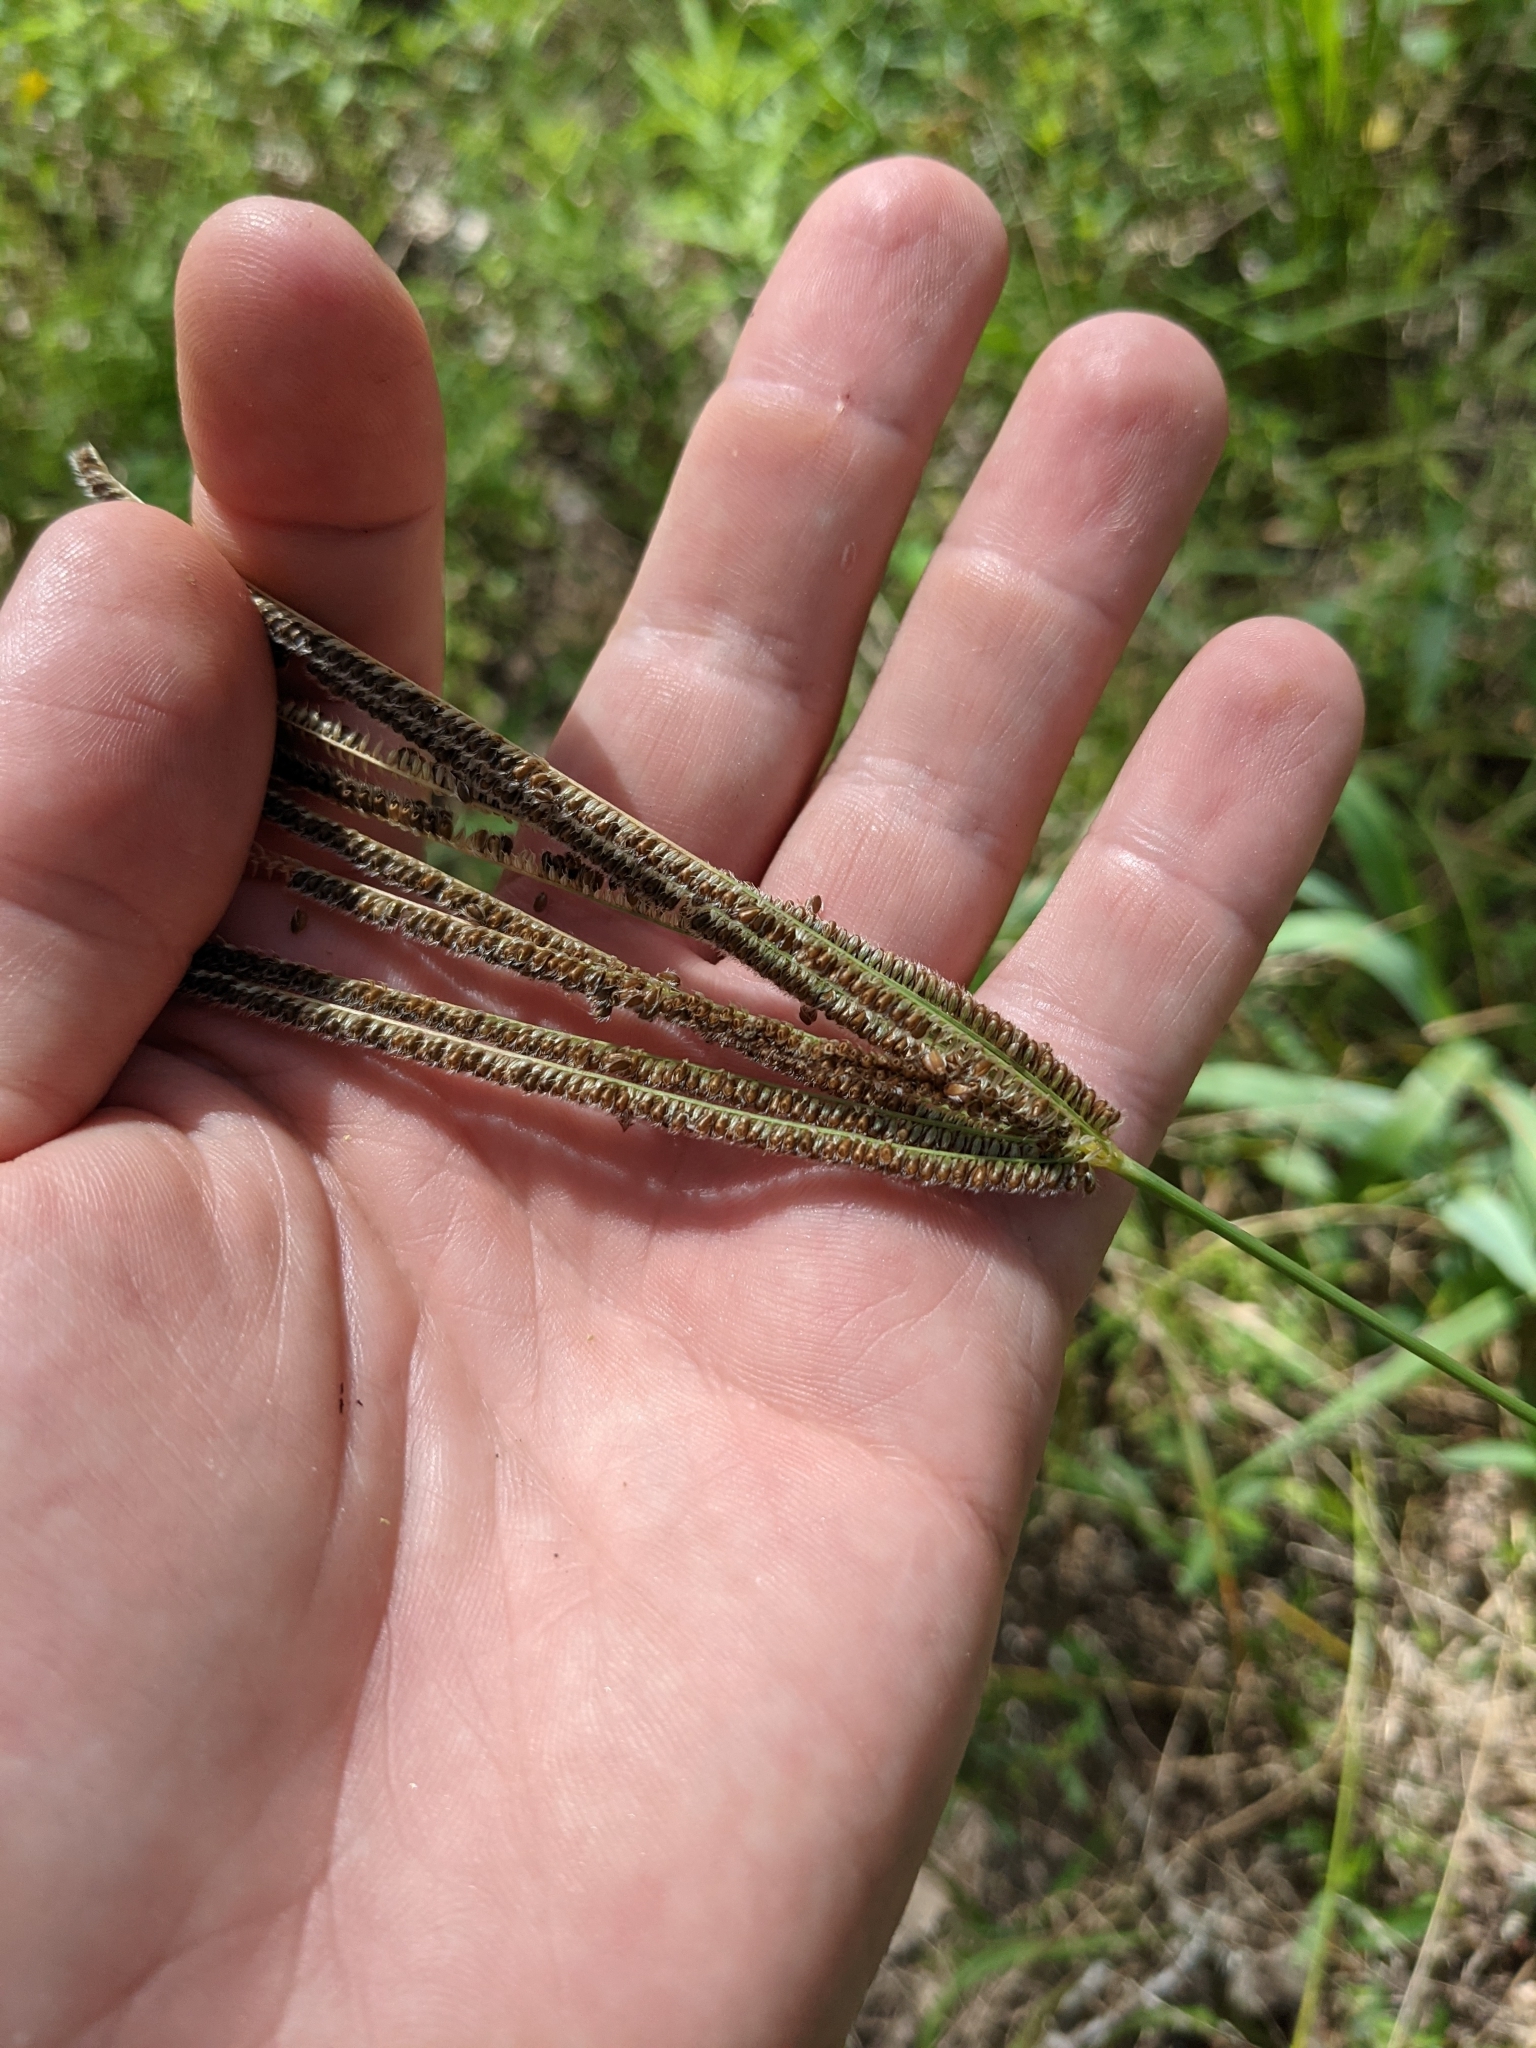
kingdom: Plantae
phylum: Tracheophyta
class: Liliopsida
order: Poales
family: Poaceae
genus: Eustachys
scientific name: Eustachys caribaea
